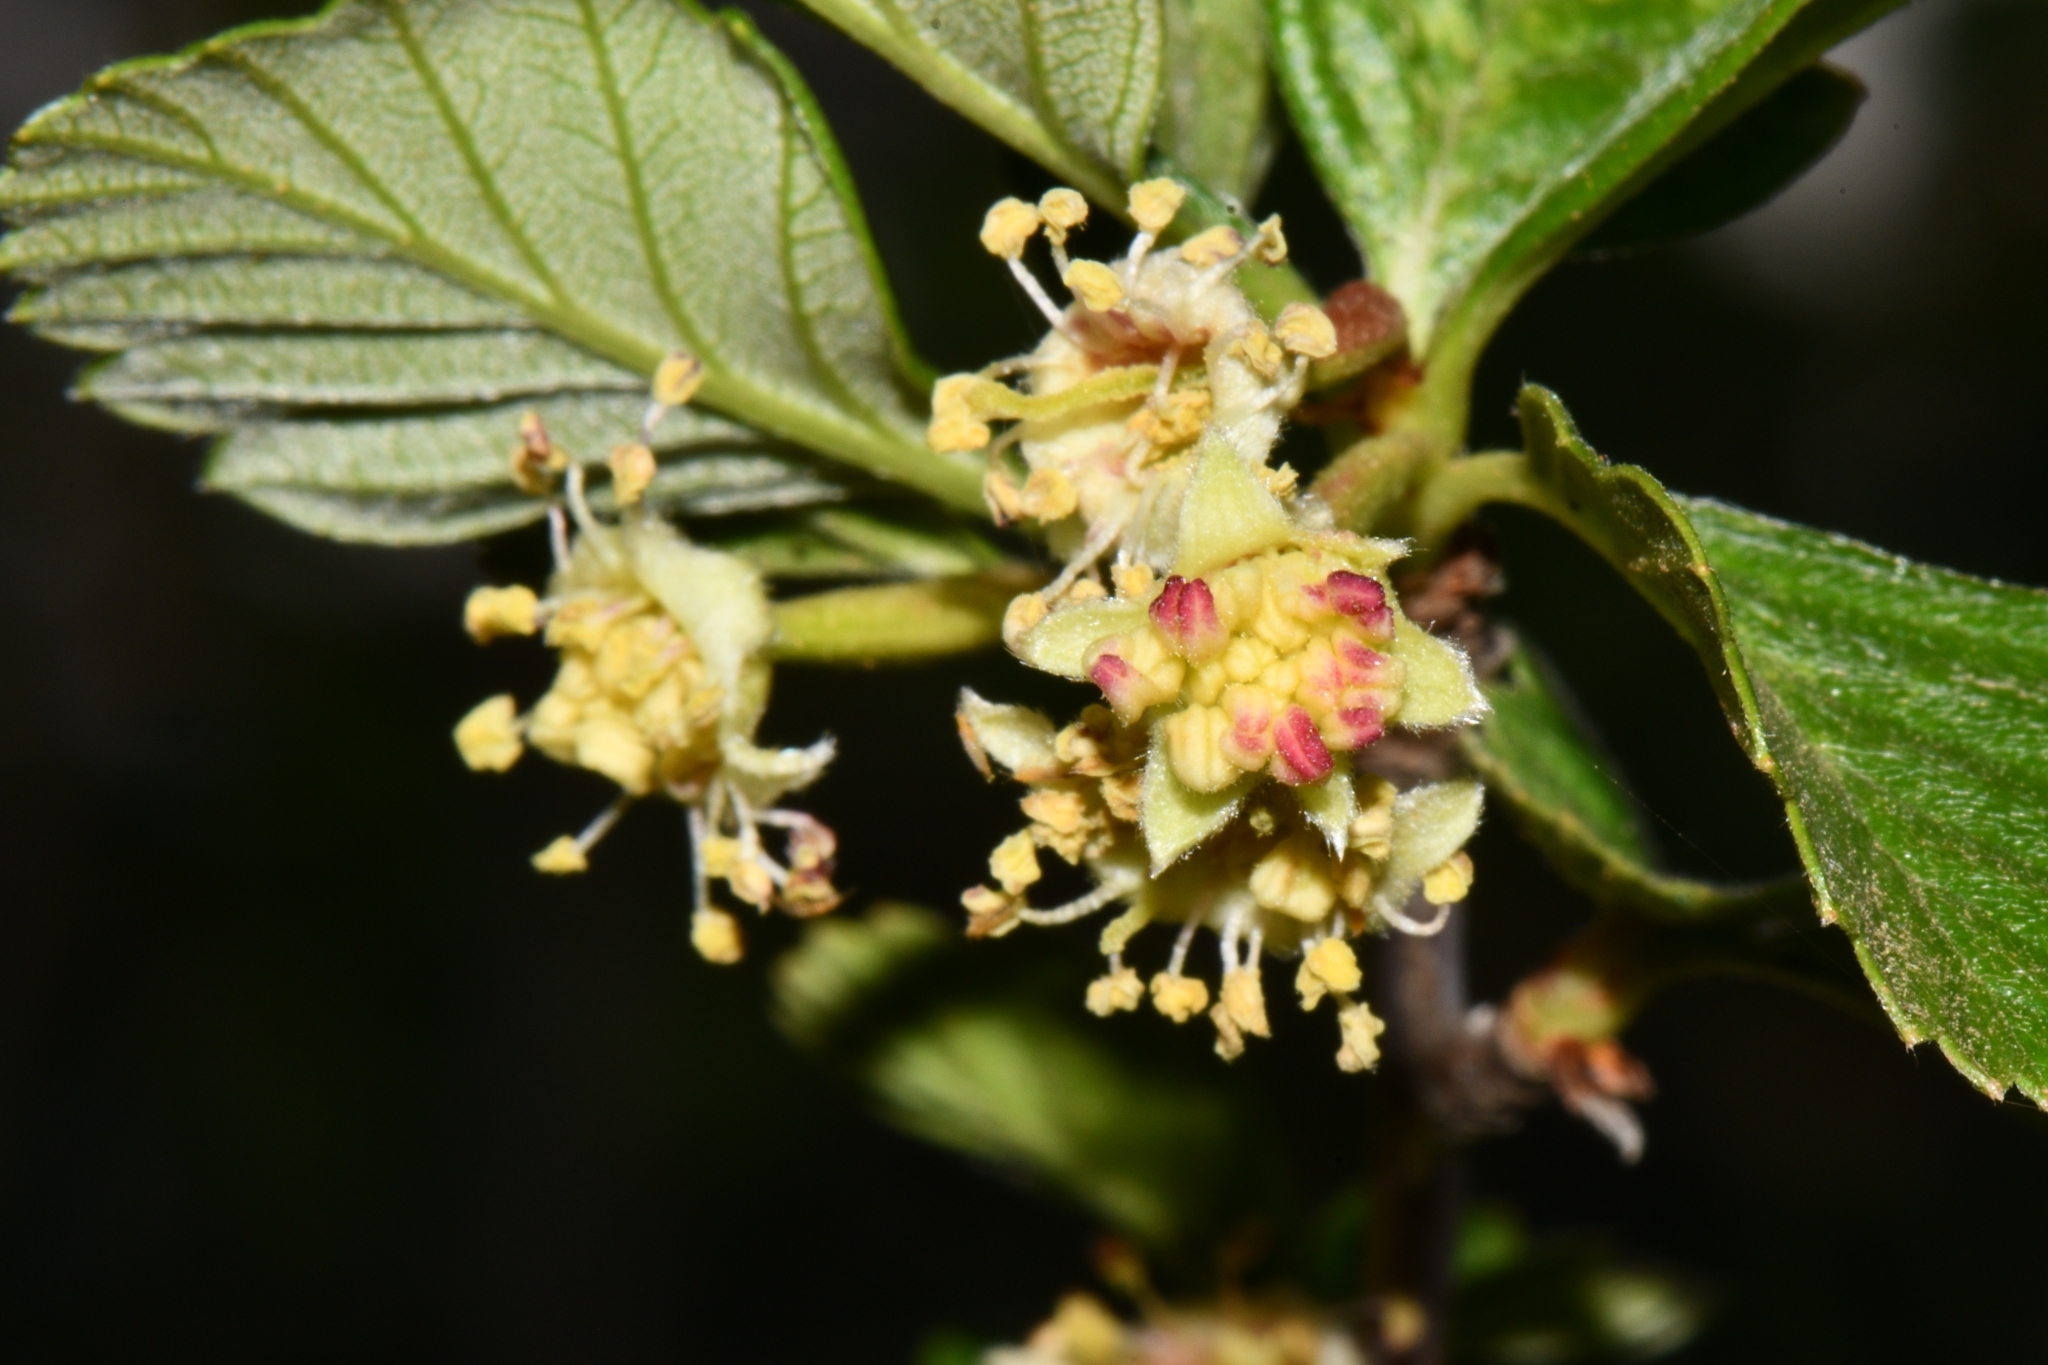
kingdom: Plantae
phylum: Tracheophyta
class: Magnoliopsida
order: Rosales
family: Rosaceae
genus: Cercocarpus
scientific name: Cercocarpus montanus
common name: Alder-leaf cercocarpus
